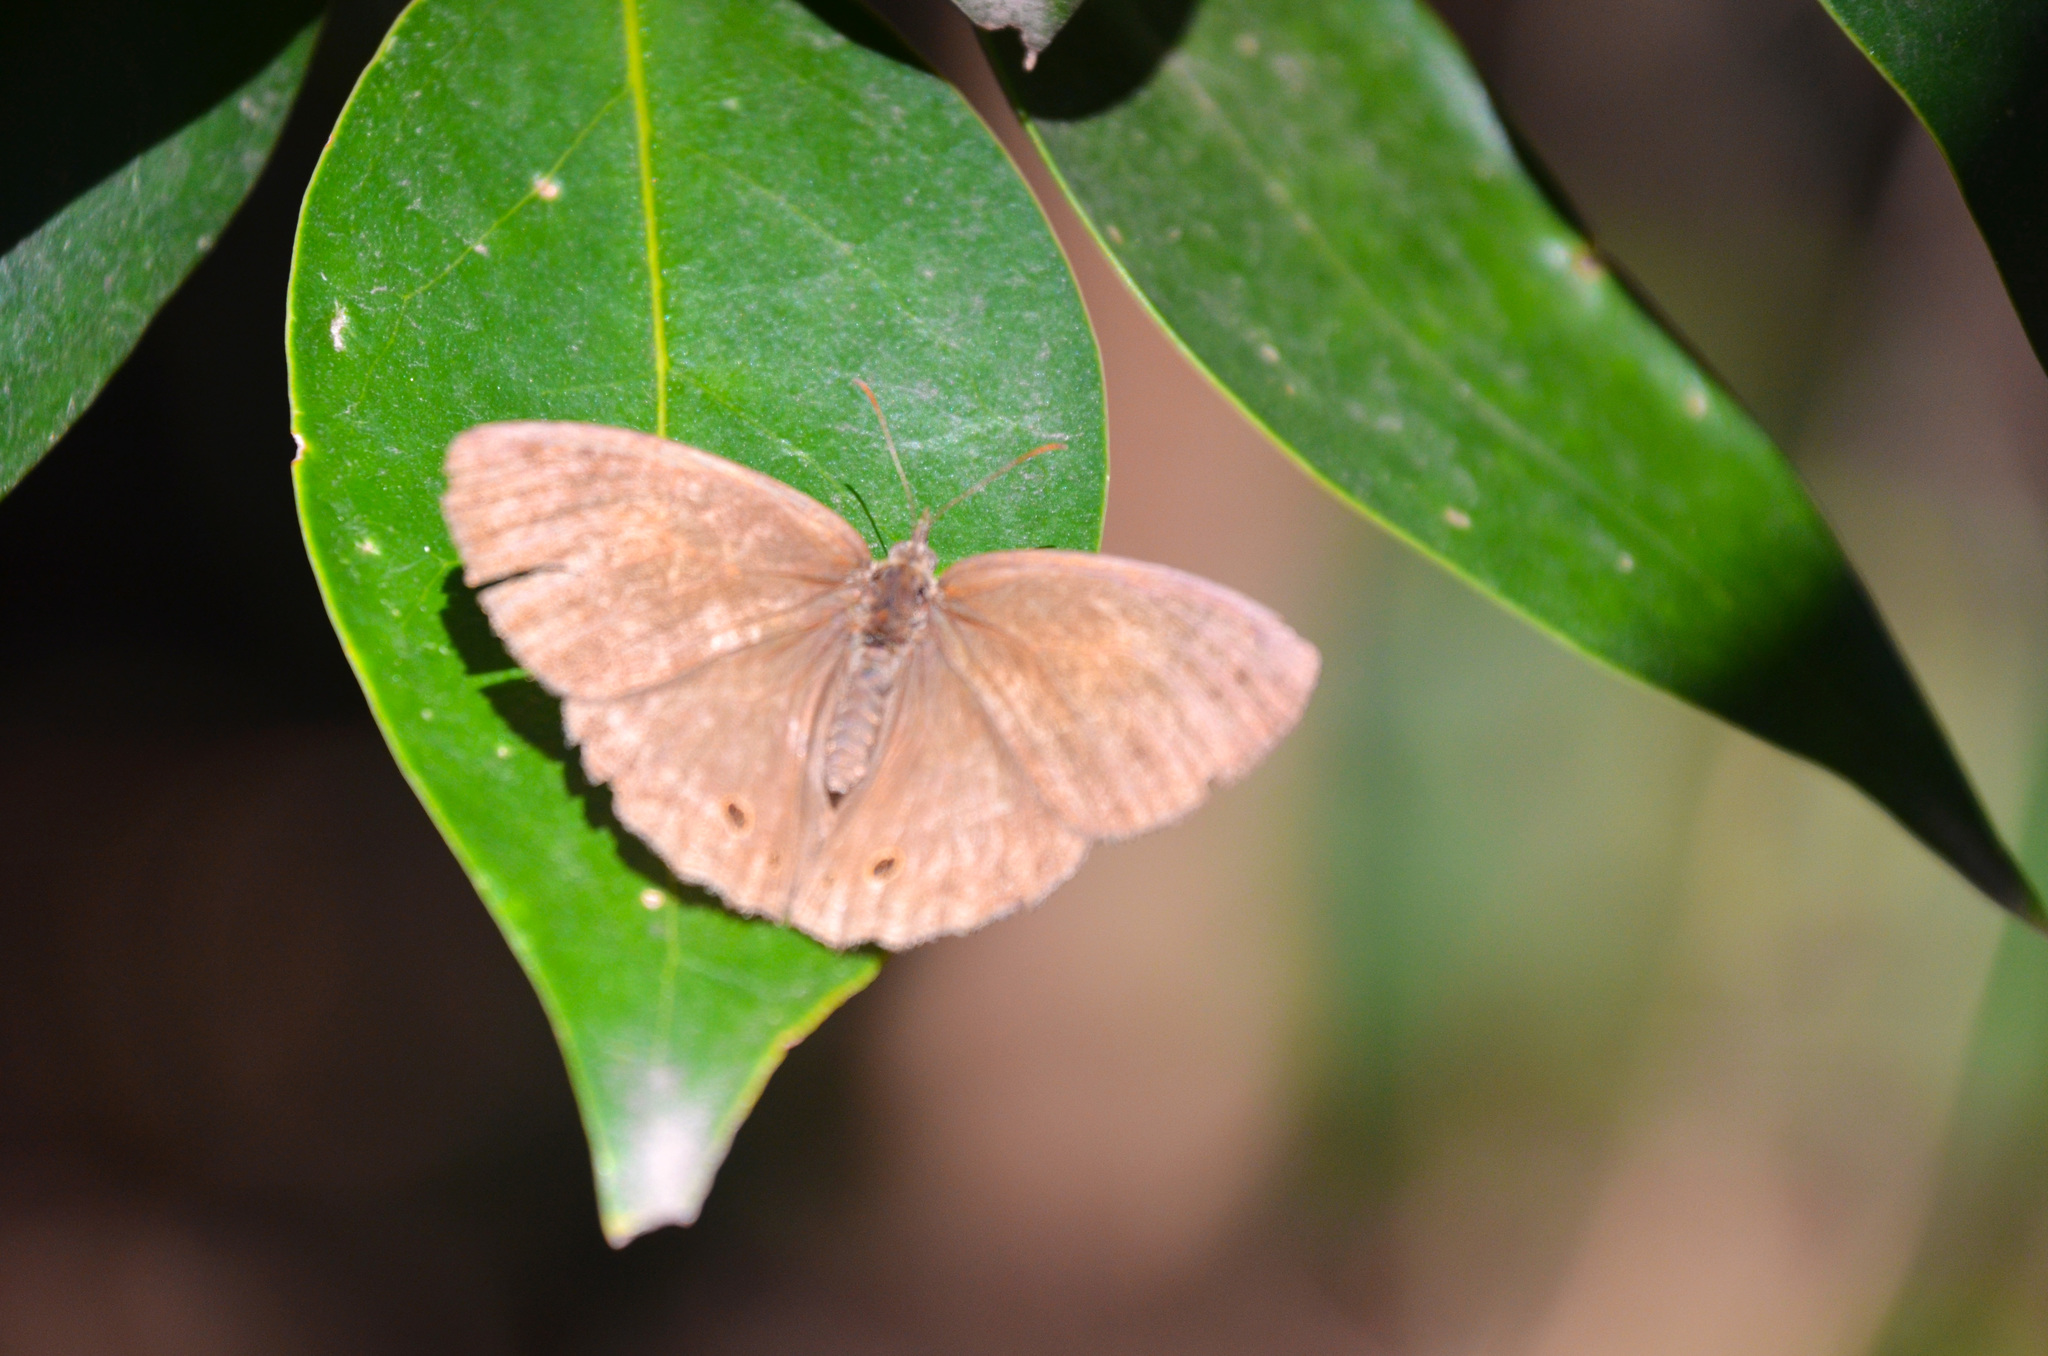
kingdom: Animalia
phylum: Arthropoda
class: Insecta
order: Lepidoptera
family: Nymphalidae
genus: Yphthimoides
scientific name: Yphthimoides celmis
